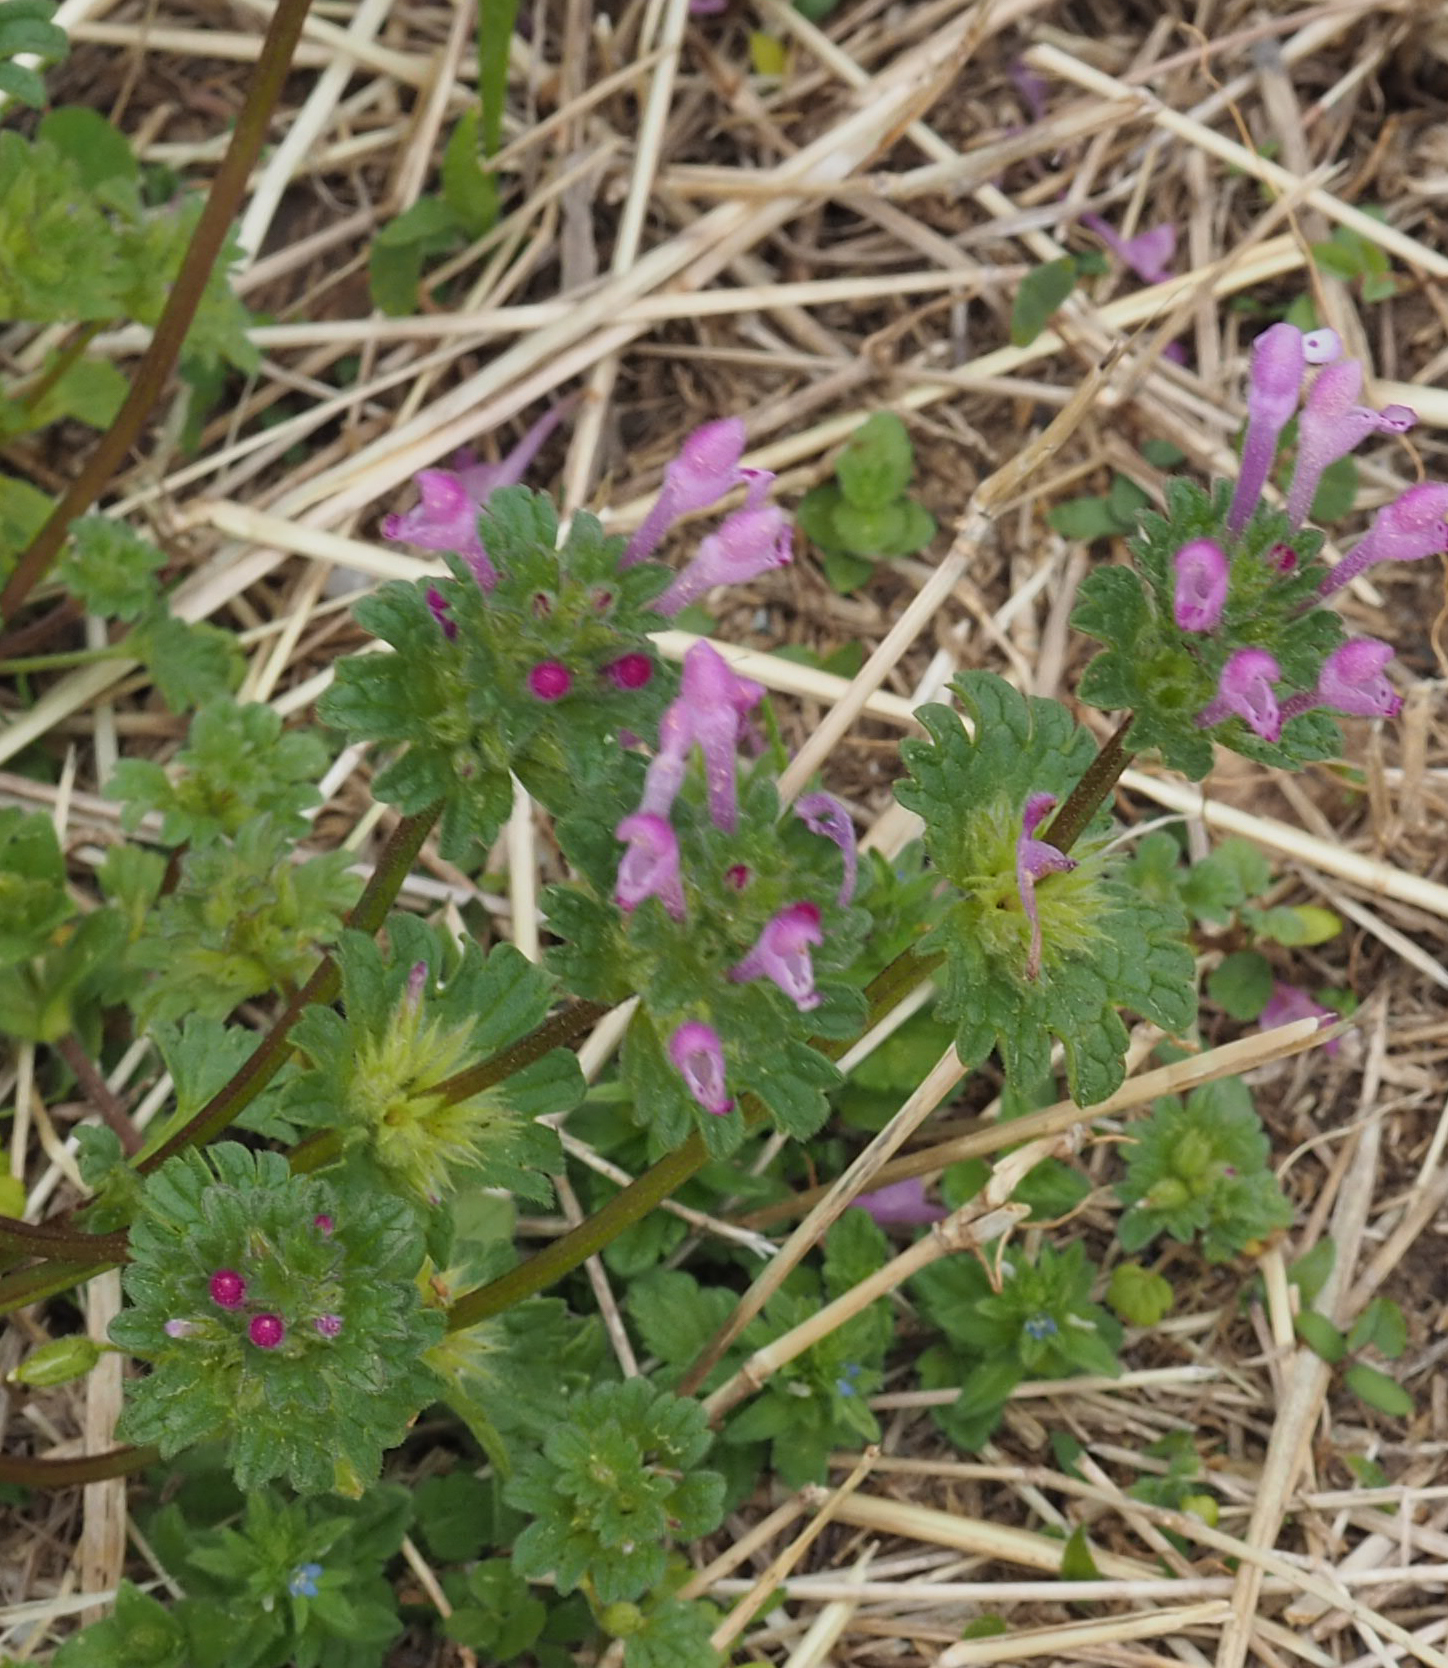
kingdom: Plantae
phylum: Tracheophyta
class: Magnoliopsida
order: Lamiales
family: Lamiaceae
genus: Lamium
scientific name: Lamium amplexicaule
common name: Henbit dead-nettle
